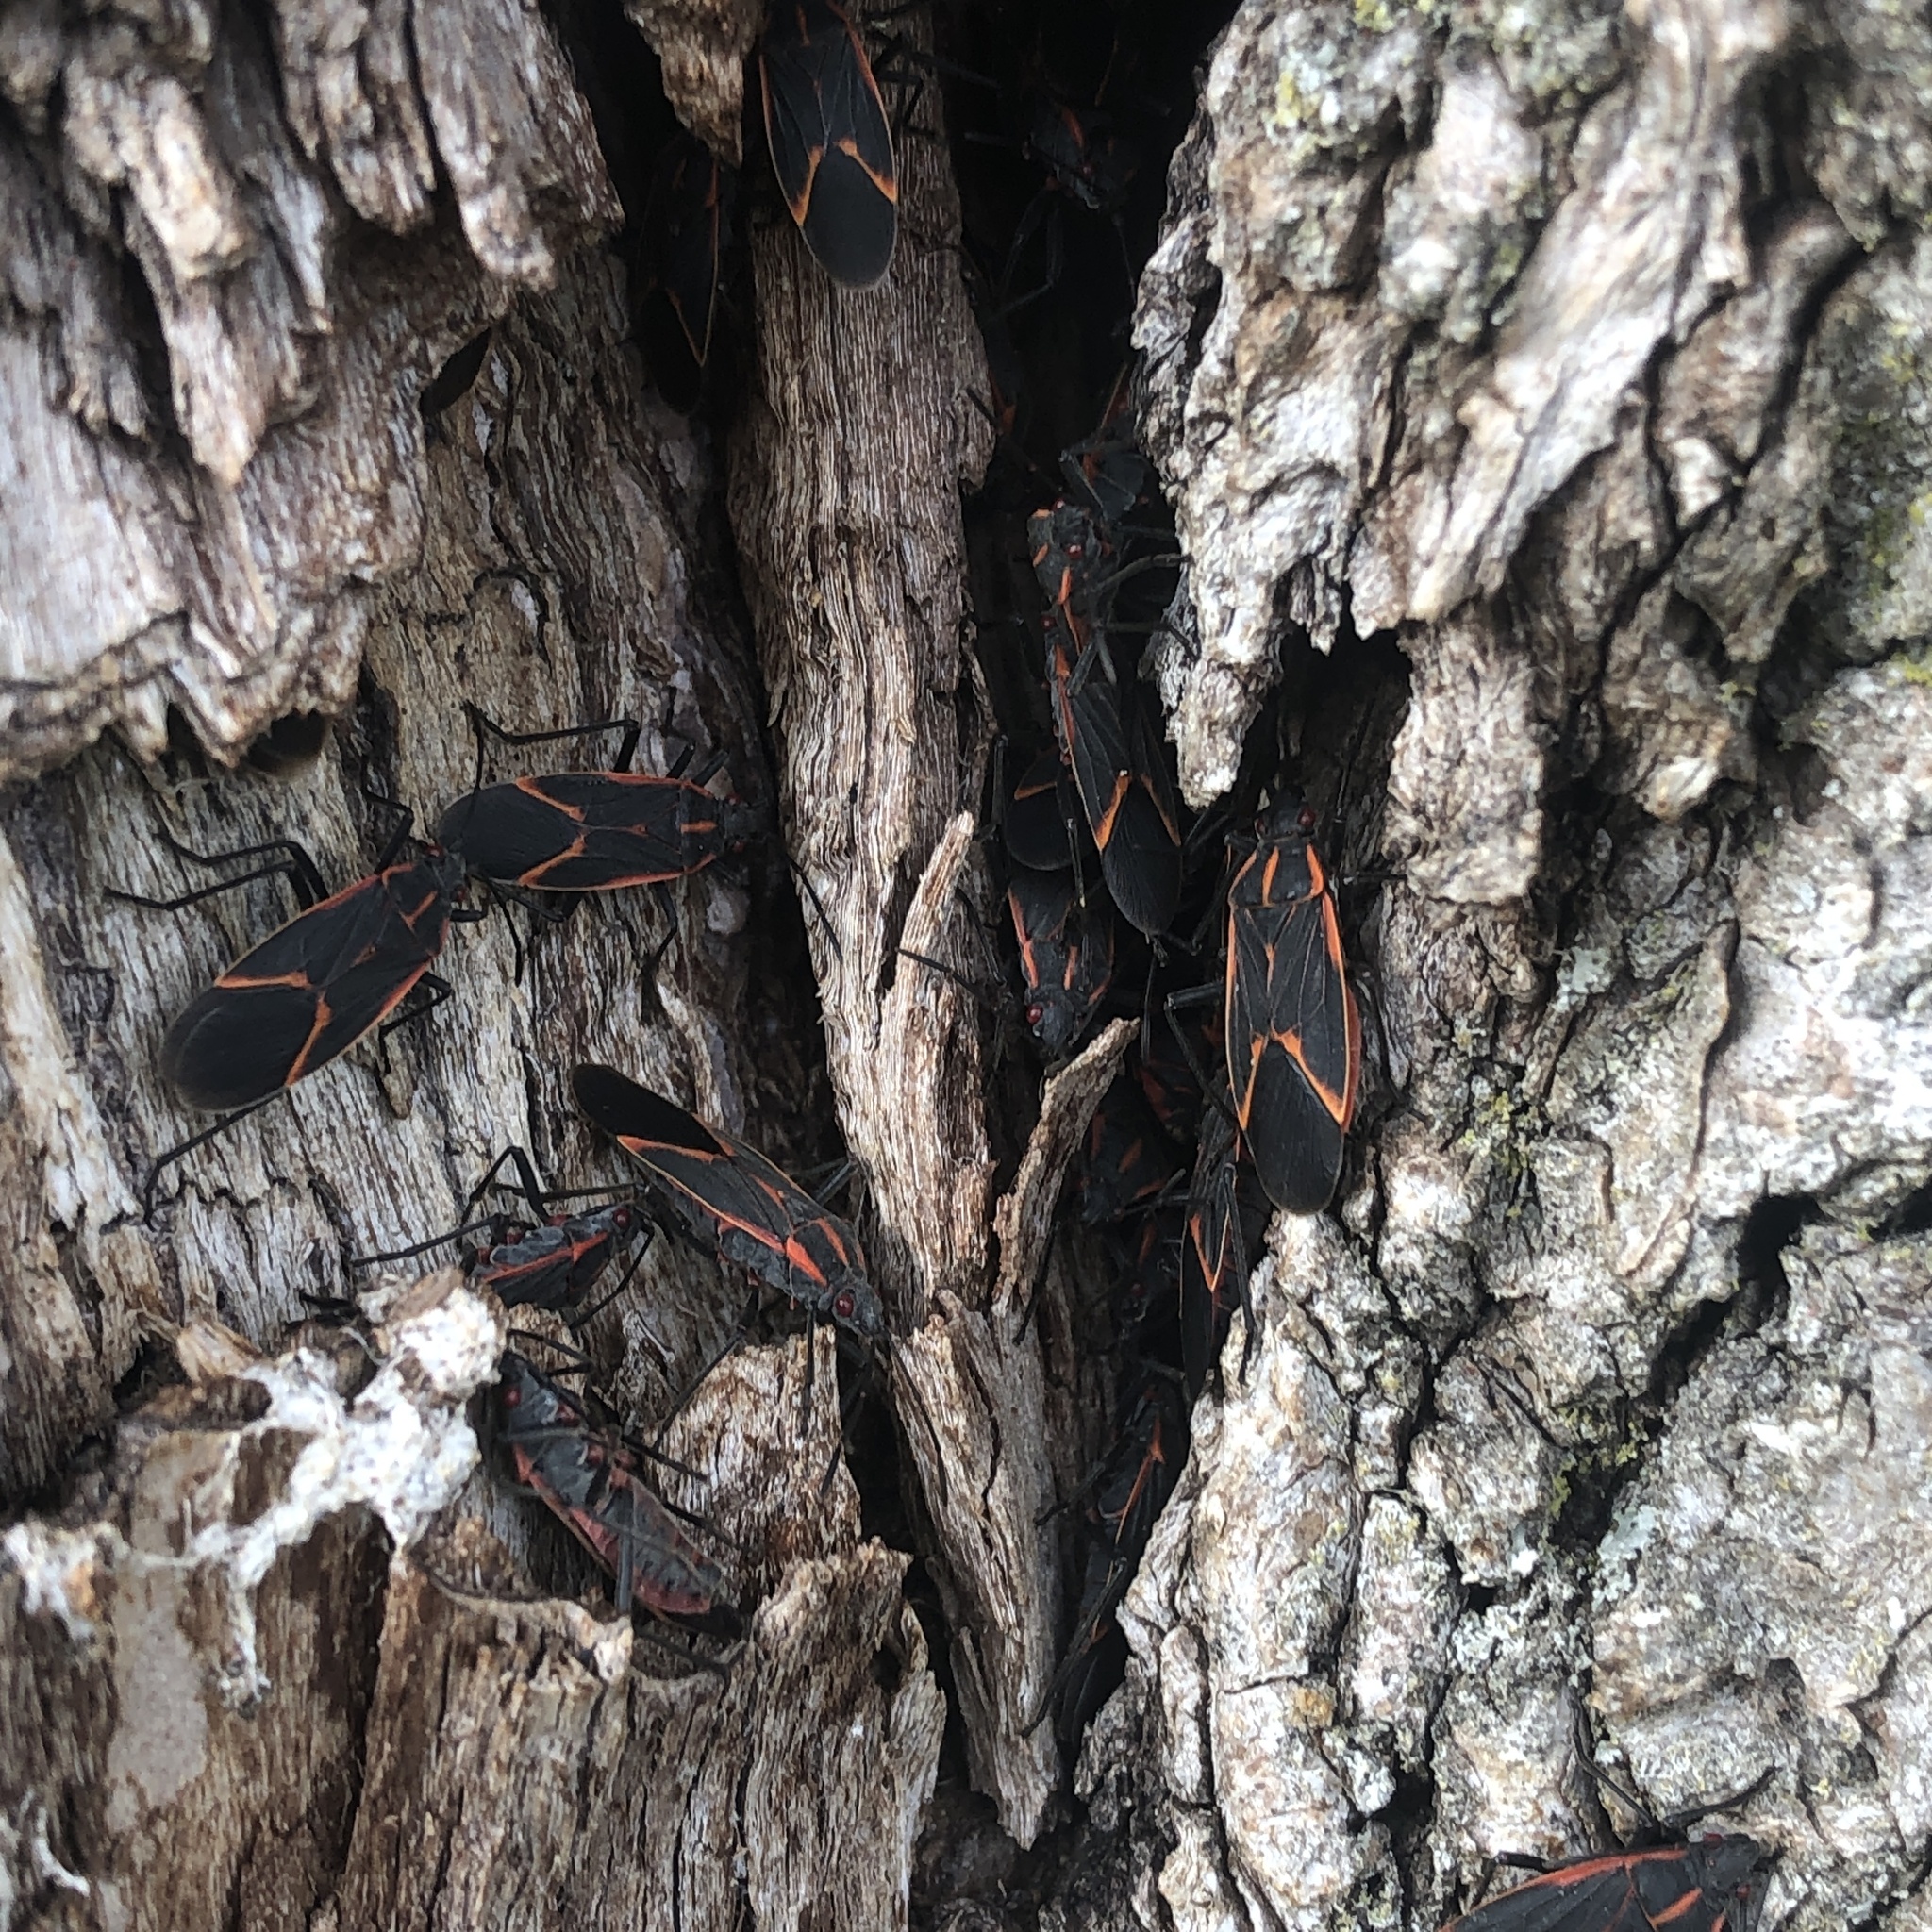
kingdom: Animalia
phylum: Arthropoda
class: Insecta
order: Hemiptera
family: Rhopalidae
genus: Boisea
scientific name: Boisea trivittata
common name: Boxelder bug
